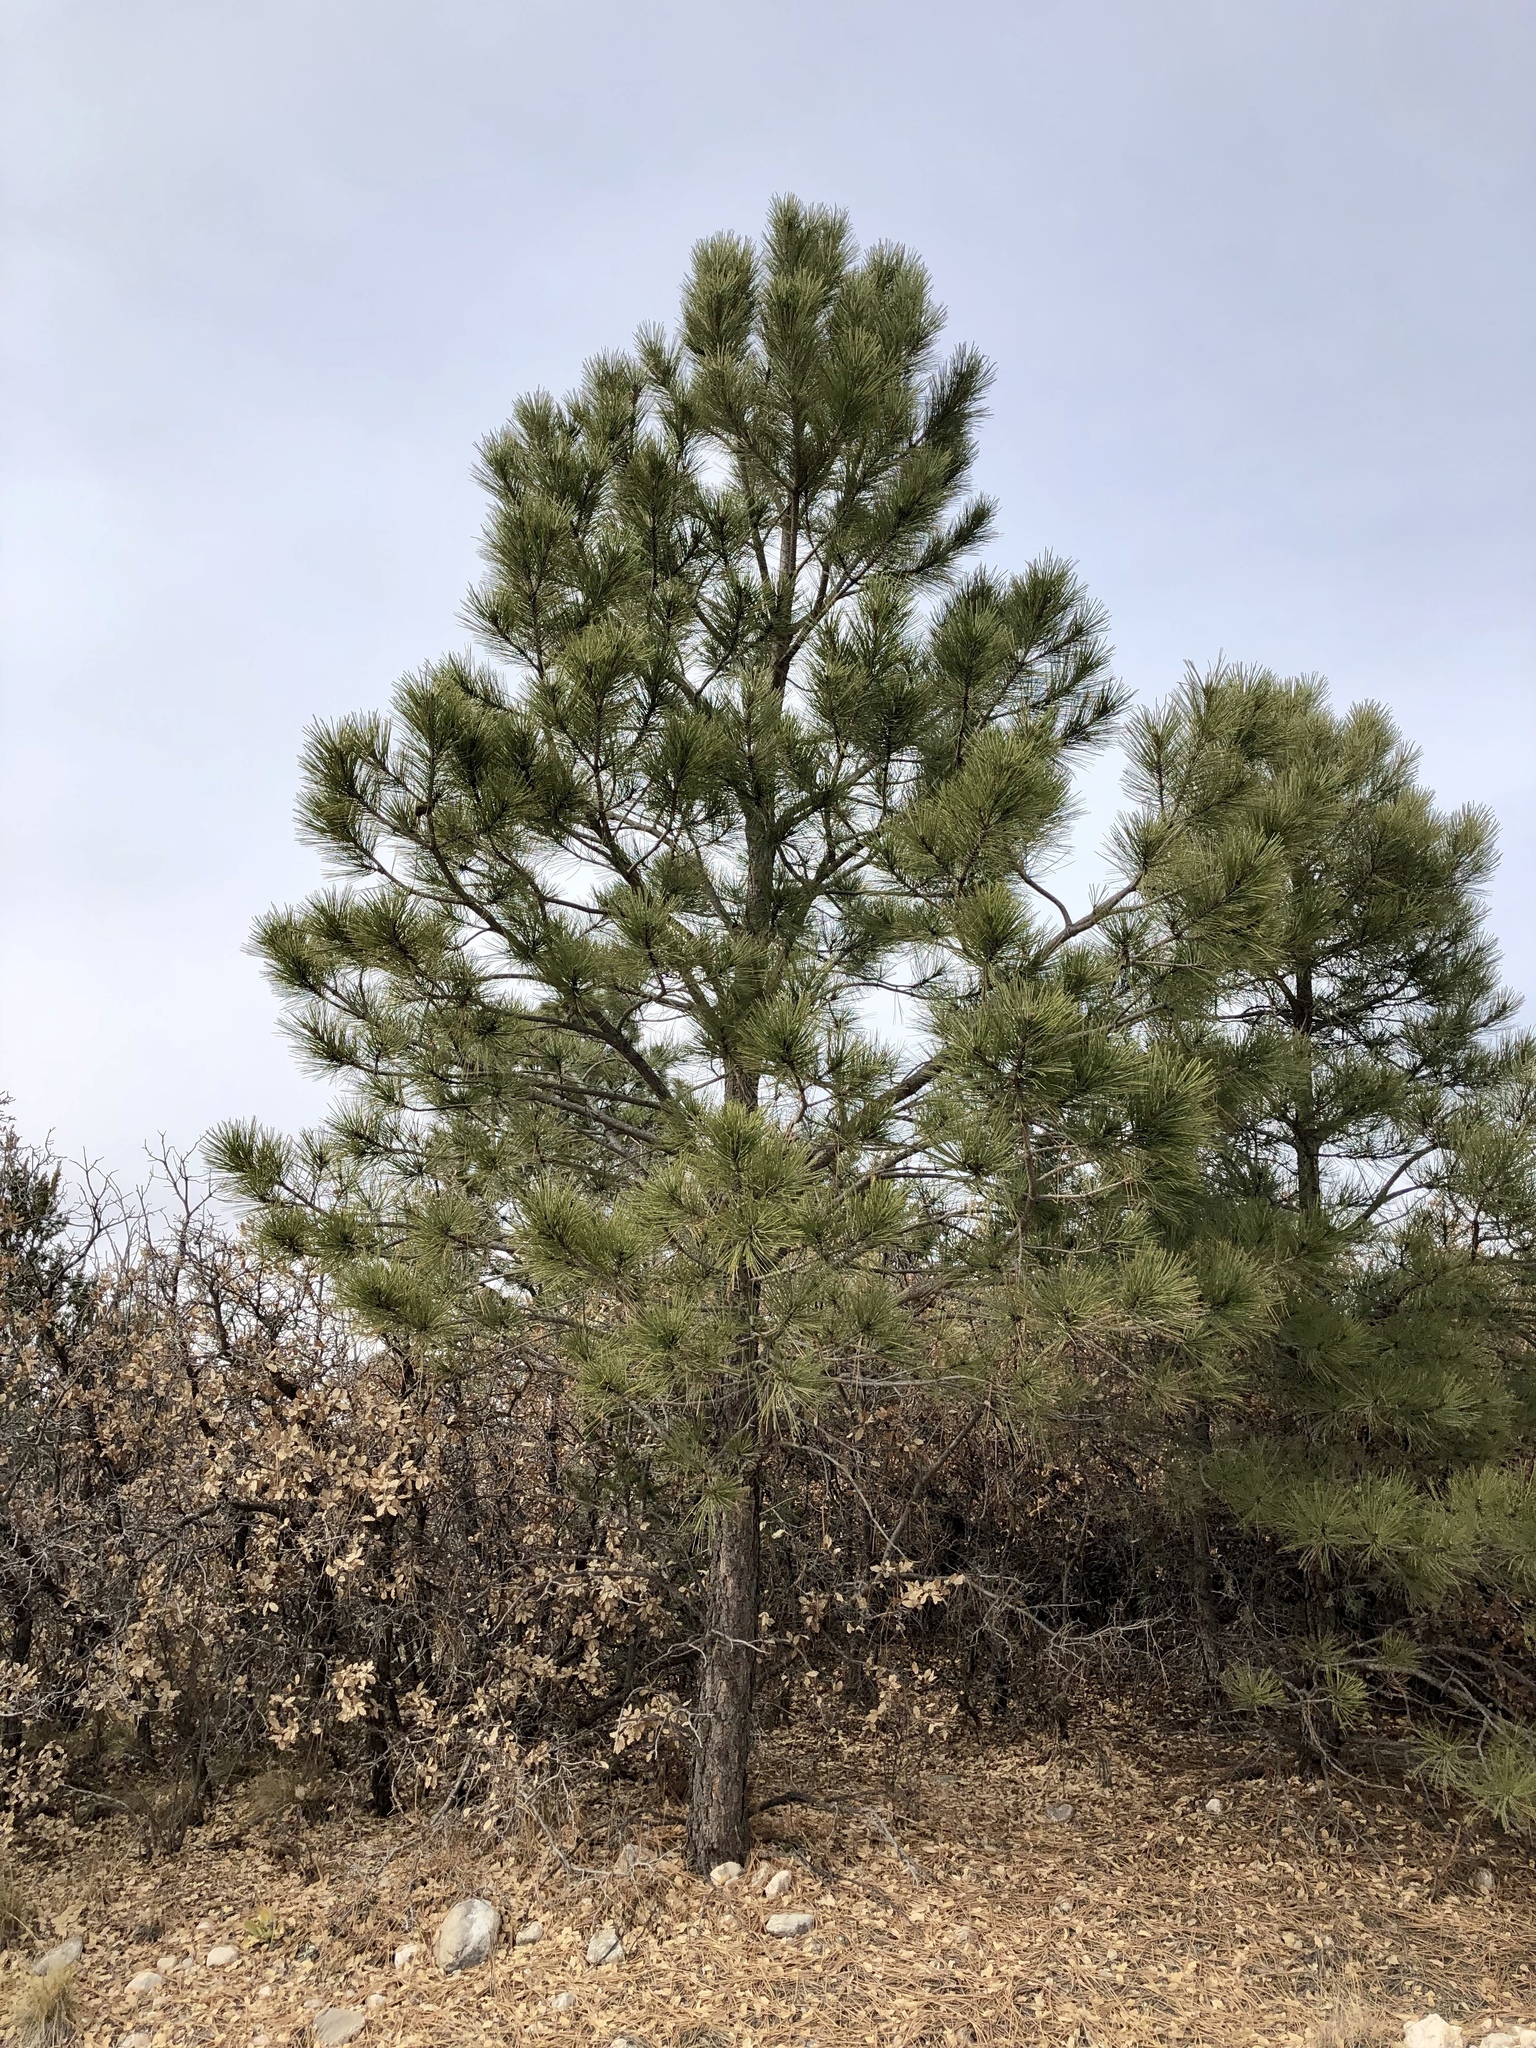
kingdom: Plantae
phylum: Tracheophyta
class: Pinopsida
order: Pinales
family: Pinaceae
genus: Pinus
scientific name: Pinus ponderosa
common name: Western yellow-pine
